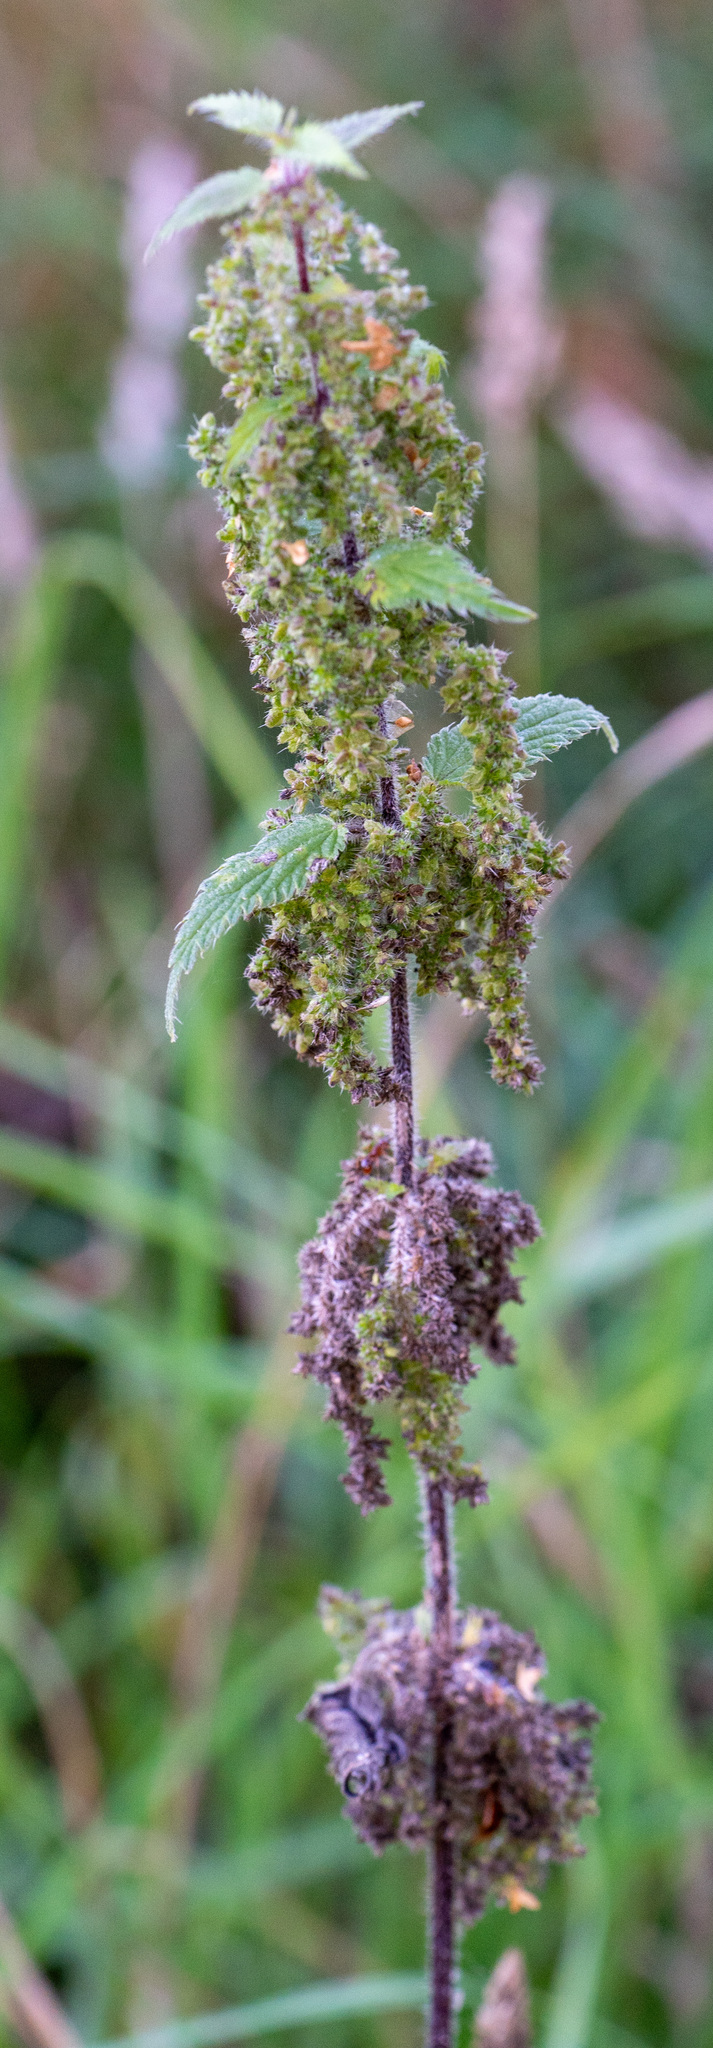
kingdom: Plantae
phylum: Tracheophyta
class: Magnoliopsida
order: Rosales
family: Urticaceae
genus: Urtica
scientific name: Urtica dioica
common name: Common nettle
